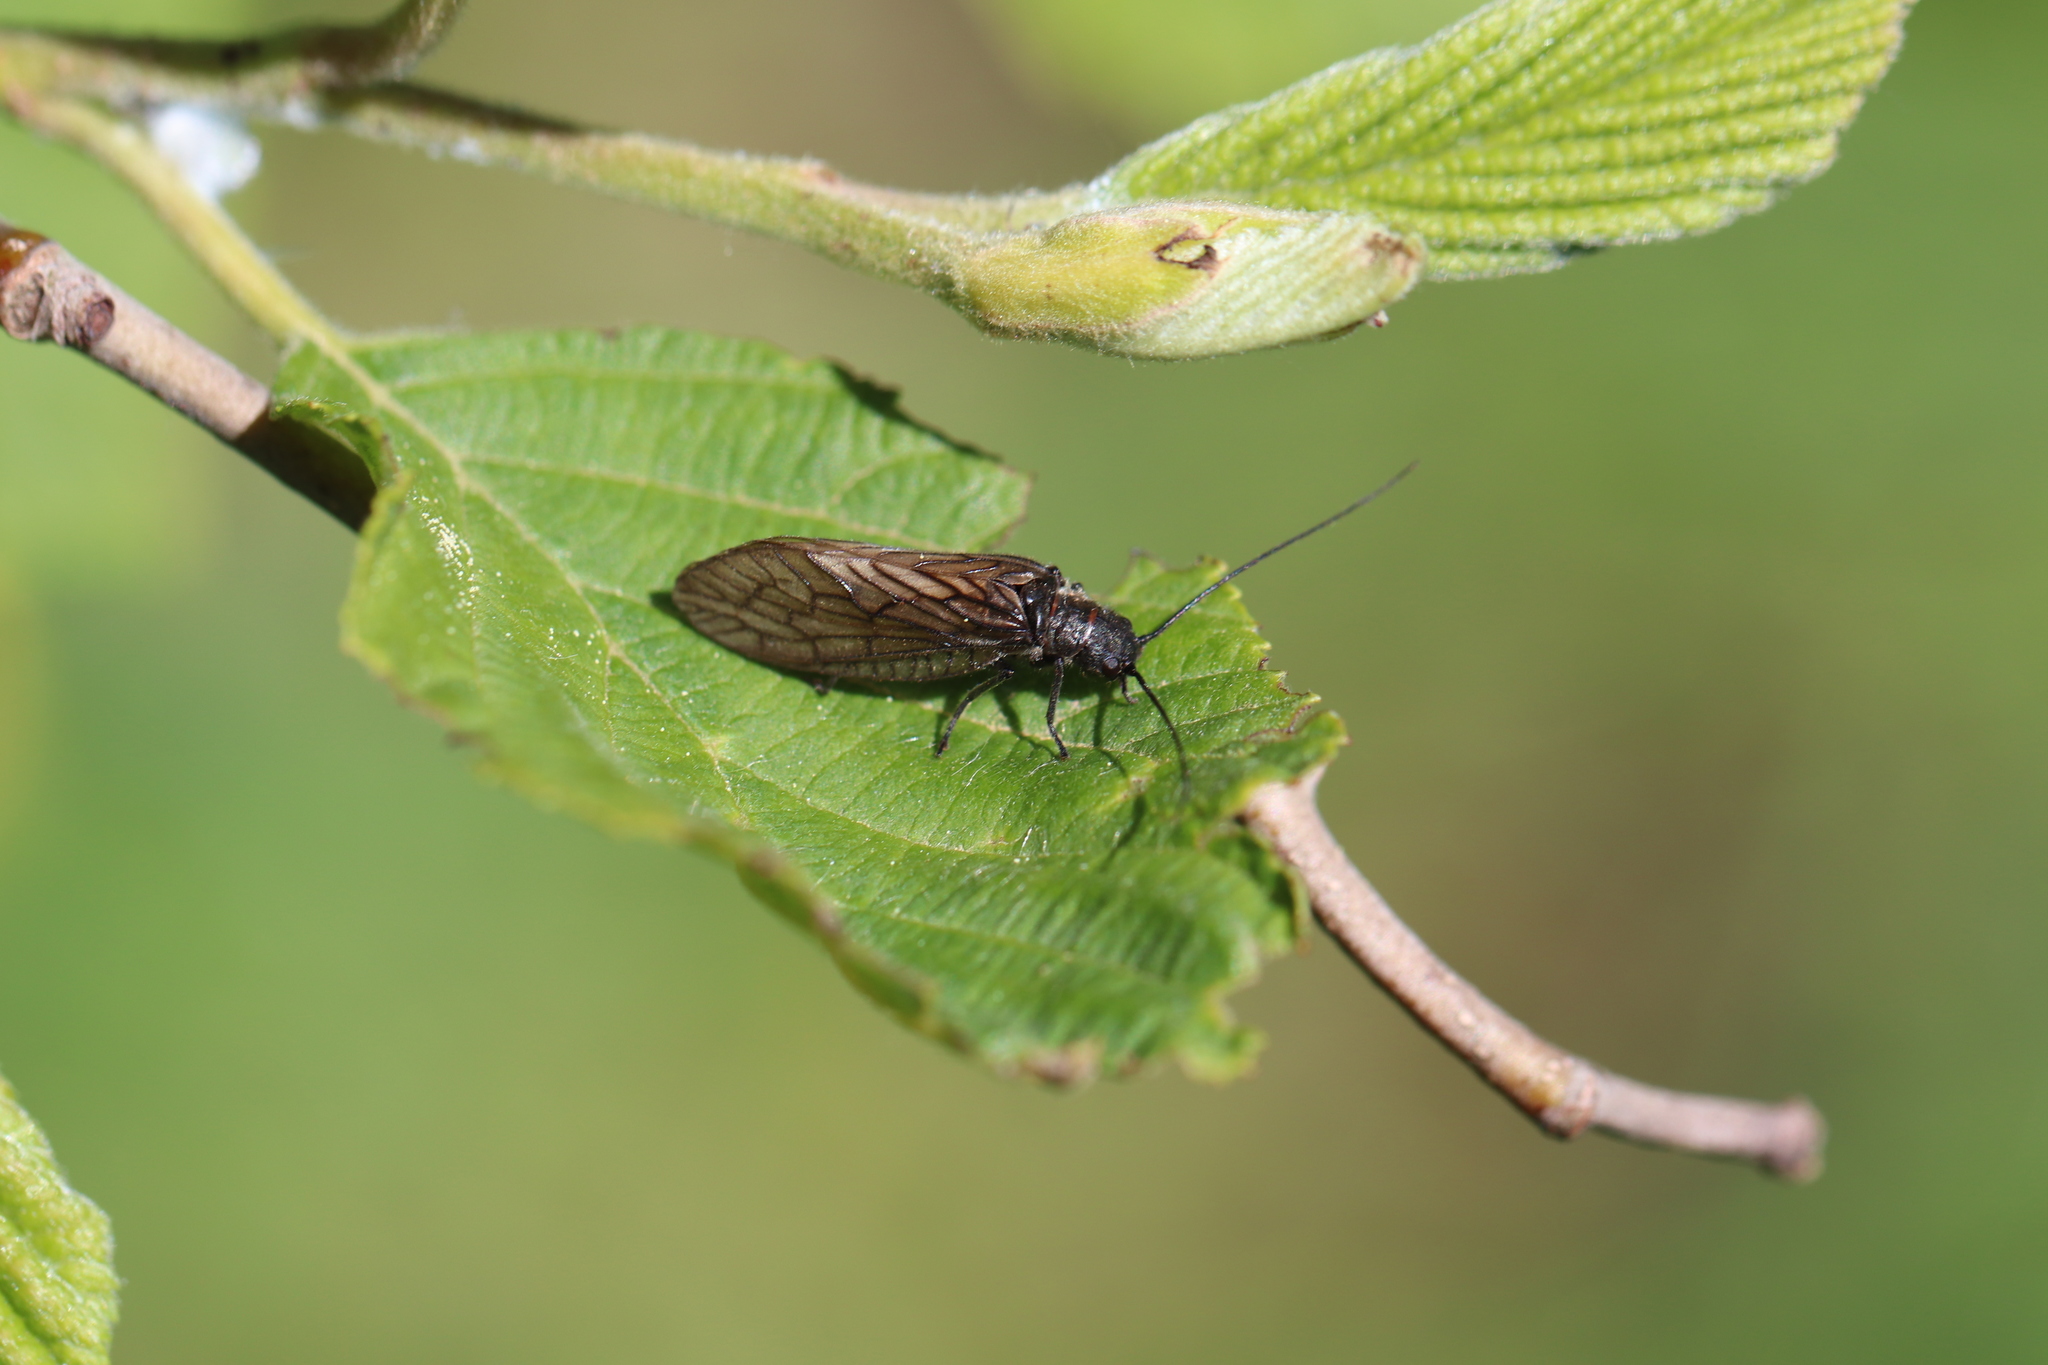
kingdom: Animalia
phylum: Arthropoda
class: Insecta
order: Megaloptera
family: Sialidae
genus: Sialis
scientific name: Sialis
